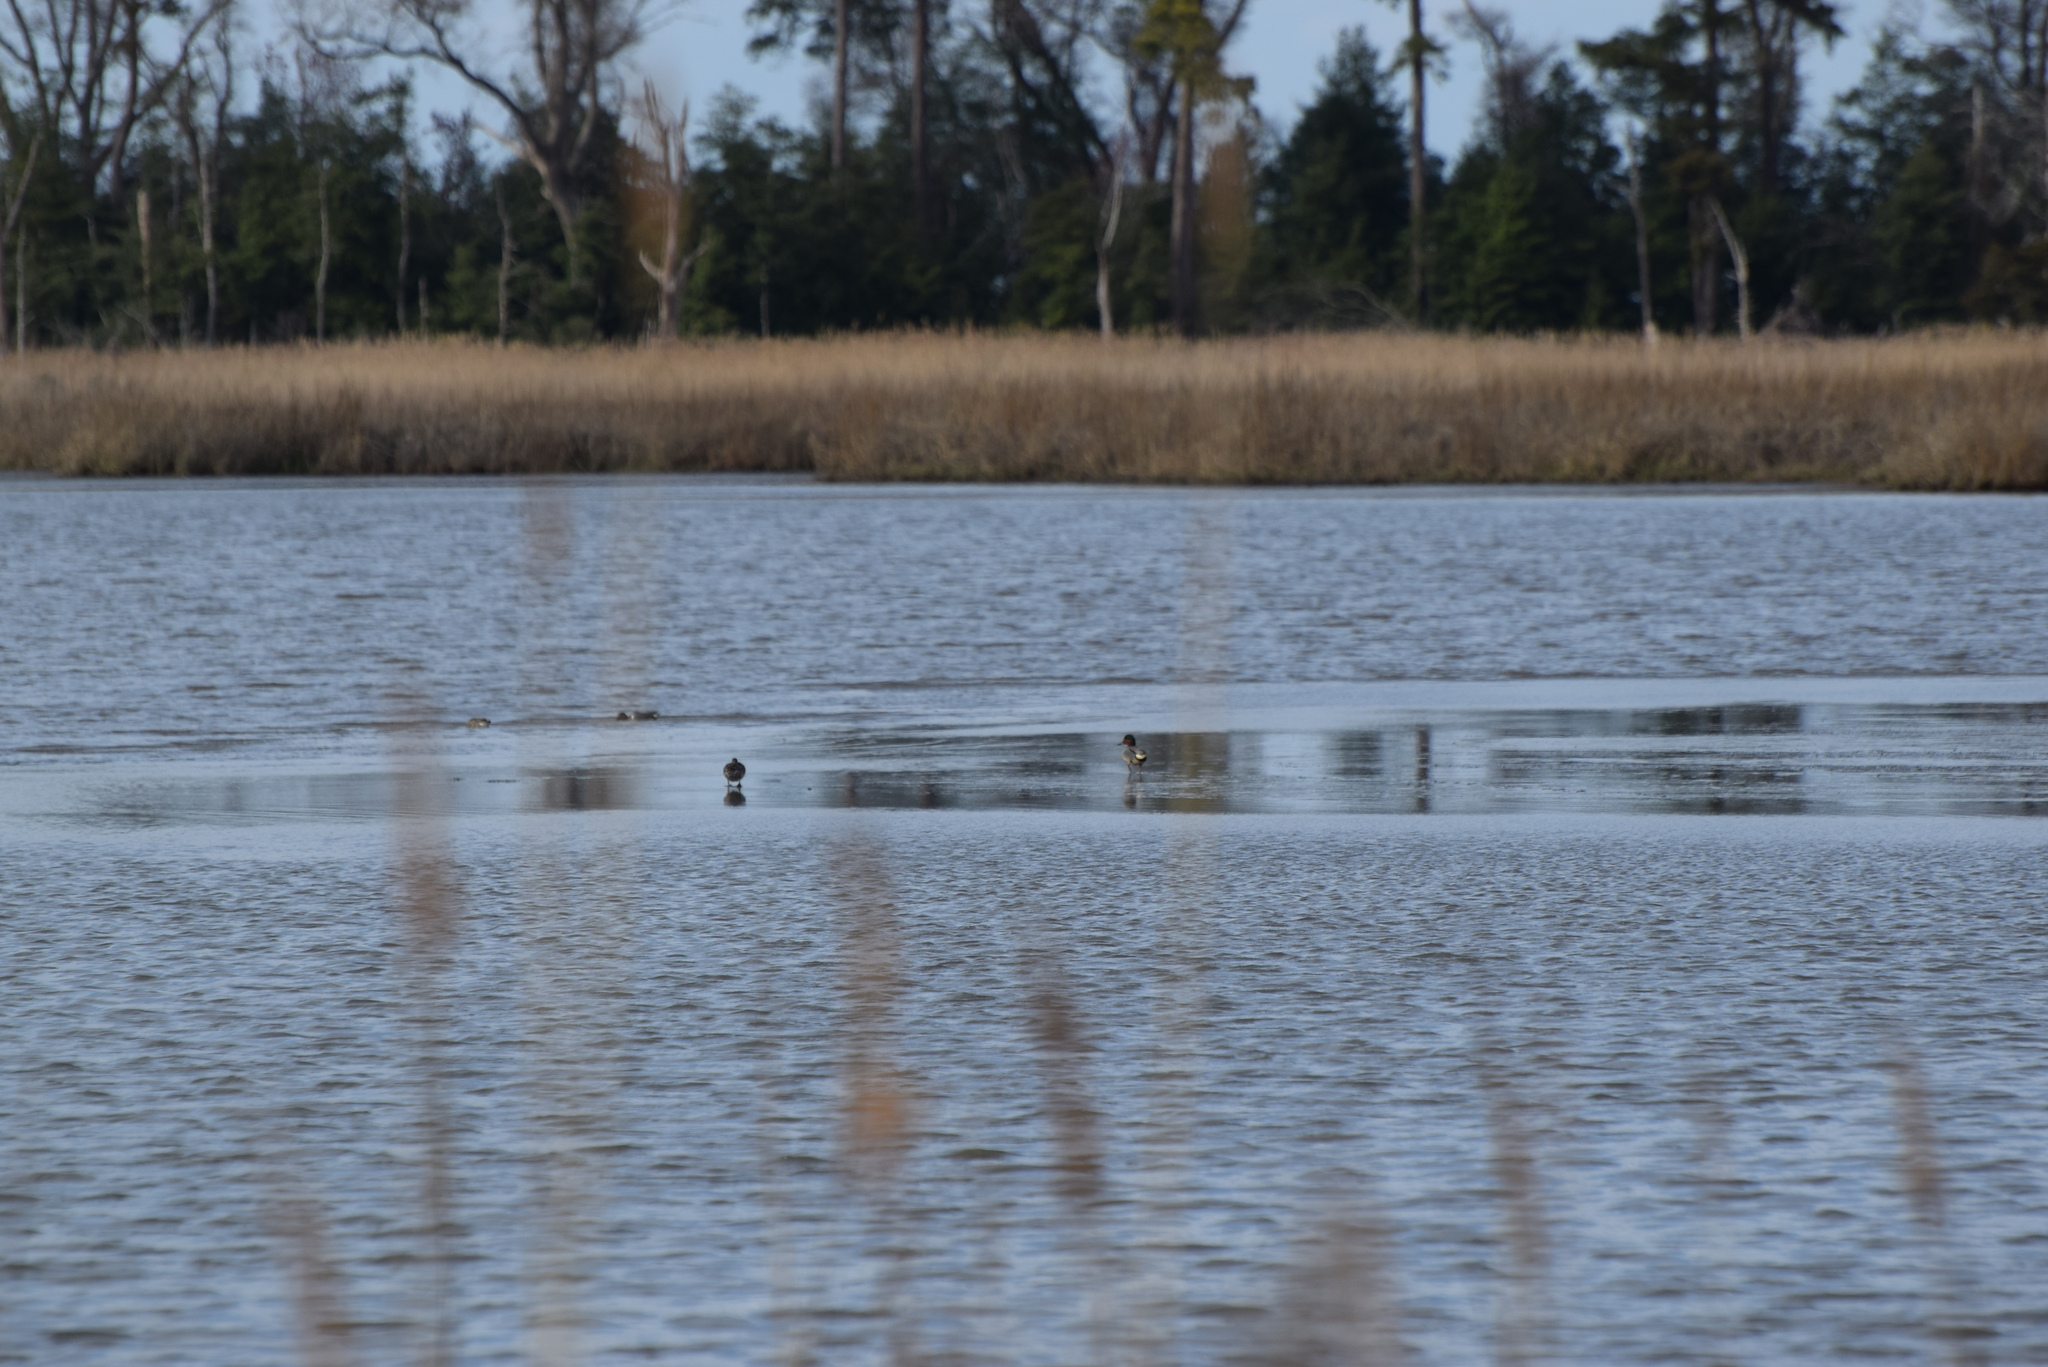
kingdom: Animalia
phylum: Chordata
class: Aves
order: Anseriformes
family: Anatidae
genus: Anas
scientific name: Anas crecca
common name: Eurasian teal
